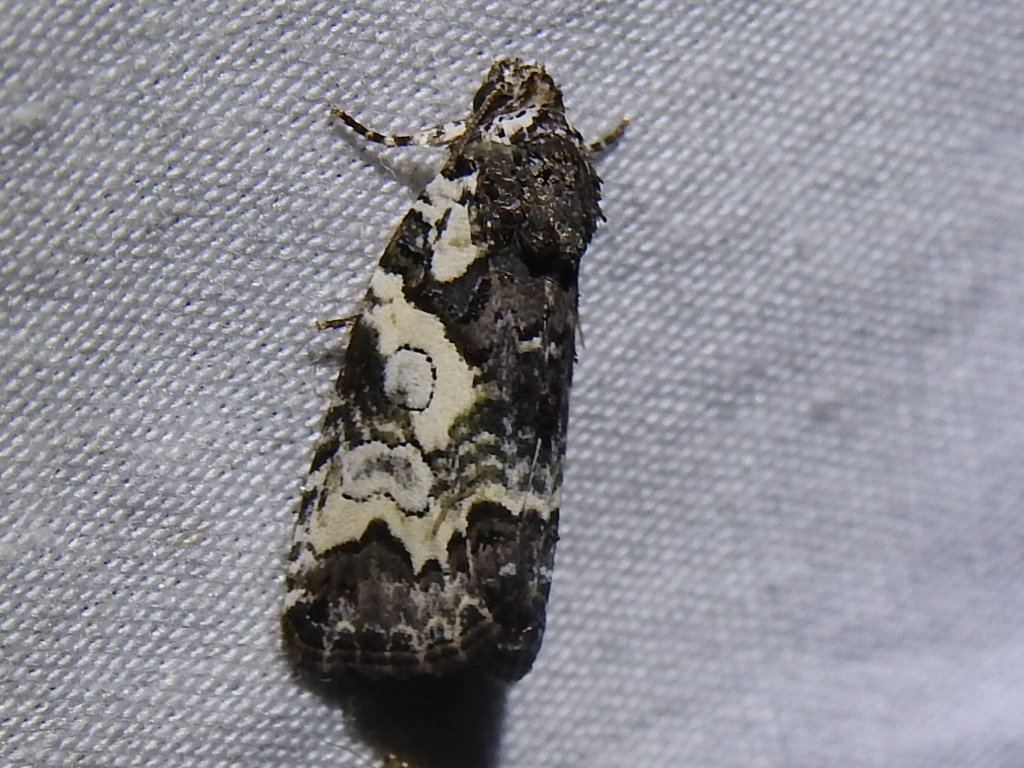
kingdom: Animalia
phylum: Arthropoda
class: Insecta
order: Lepidoptera
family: Noctuidae
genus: Cerma
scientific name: Cerma cerintha
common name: Tufted bird-dropping moth
